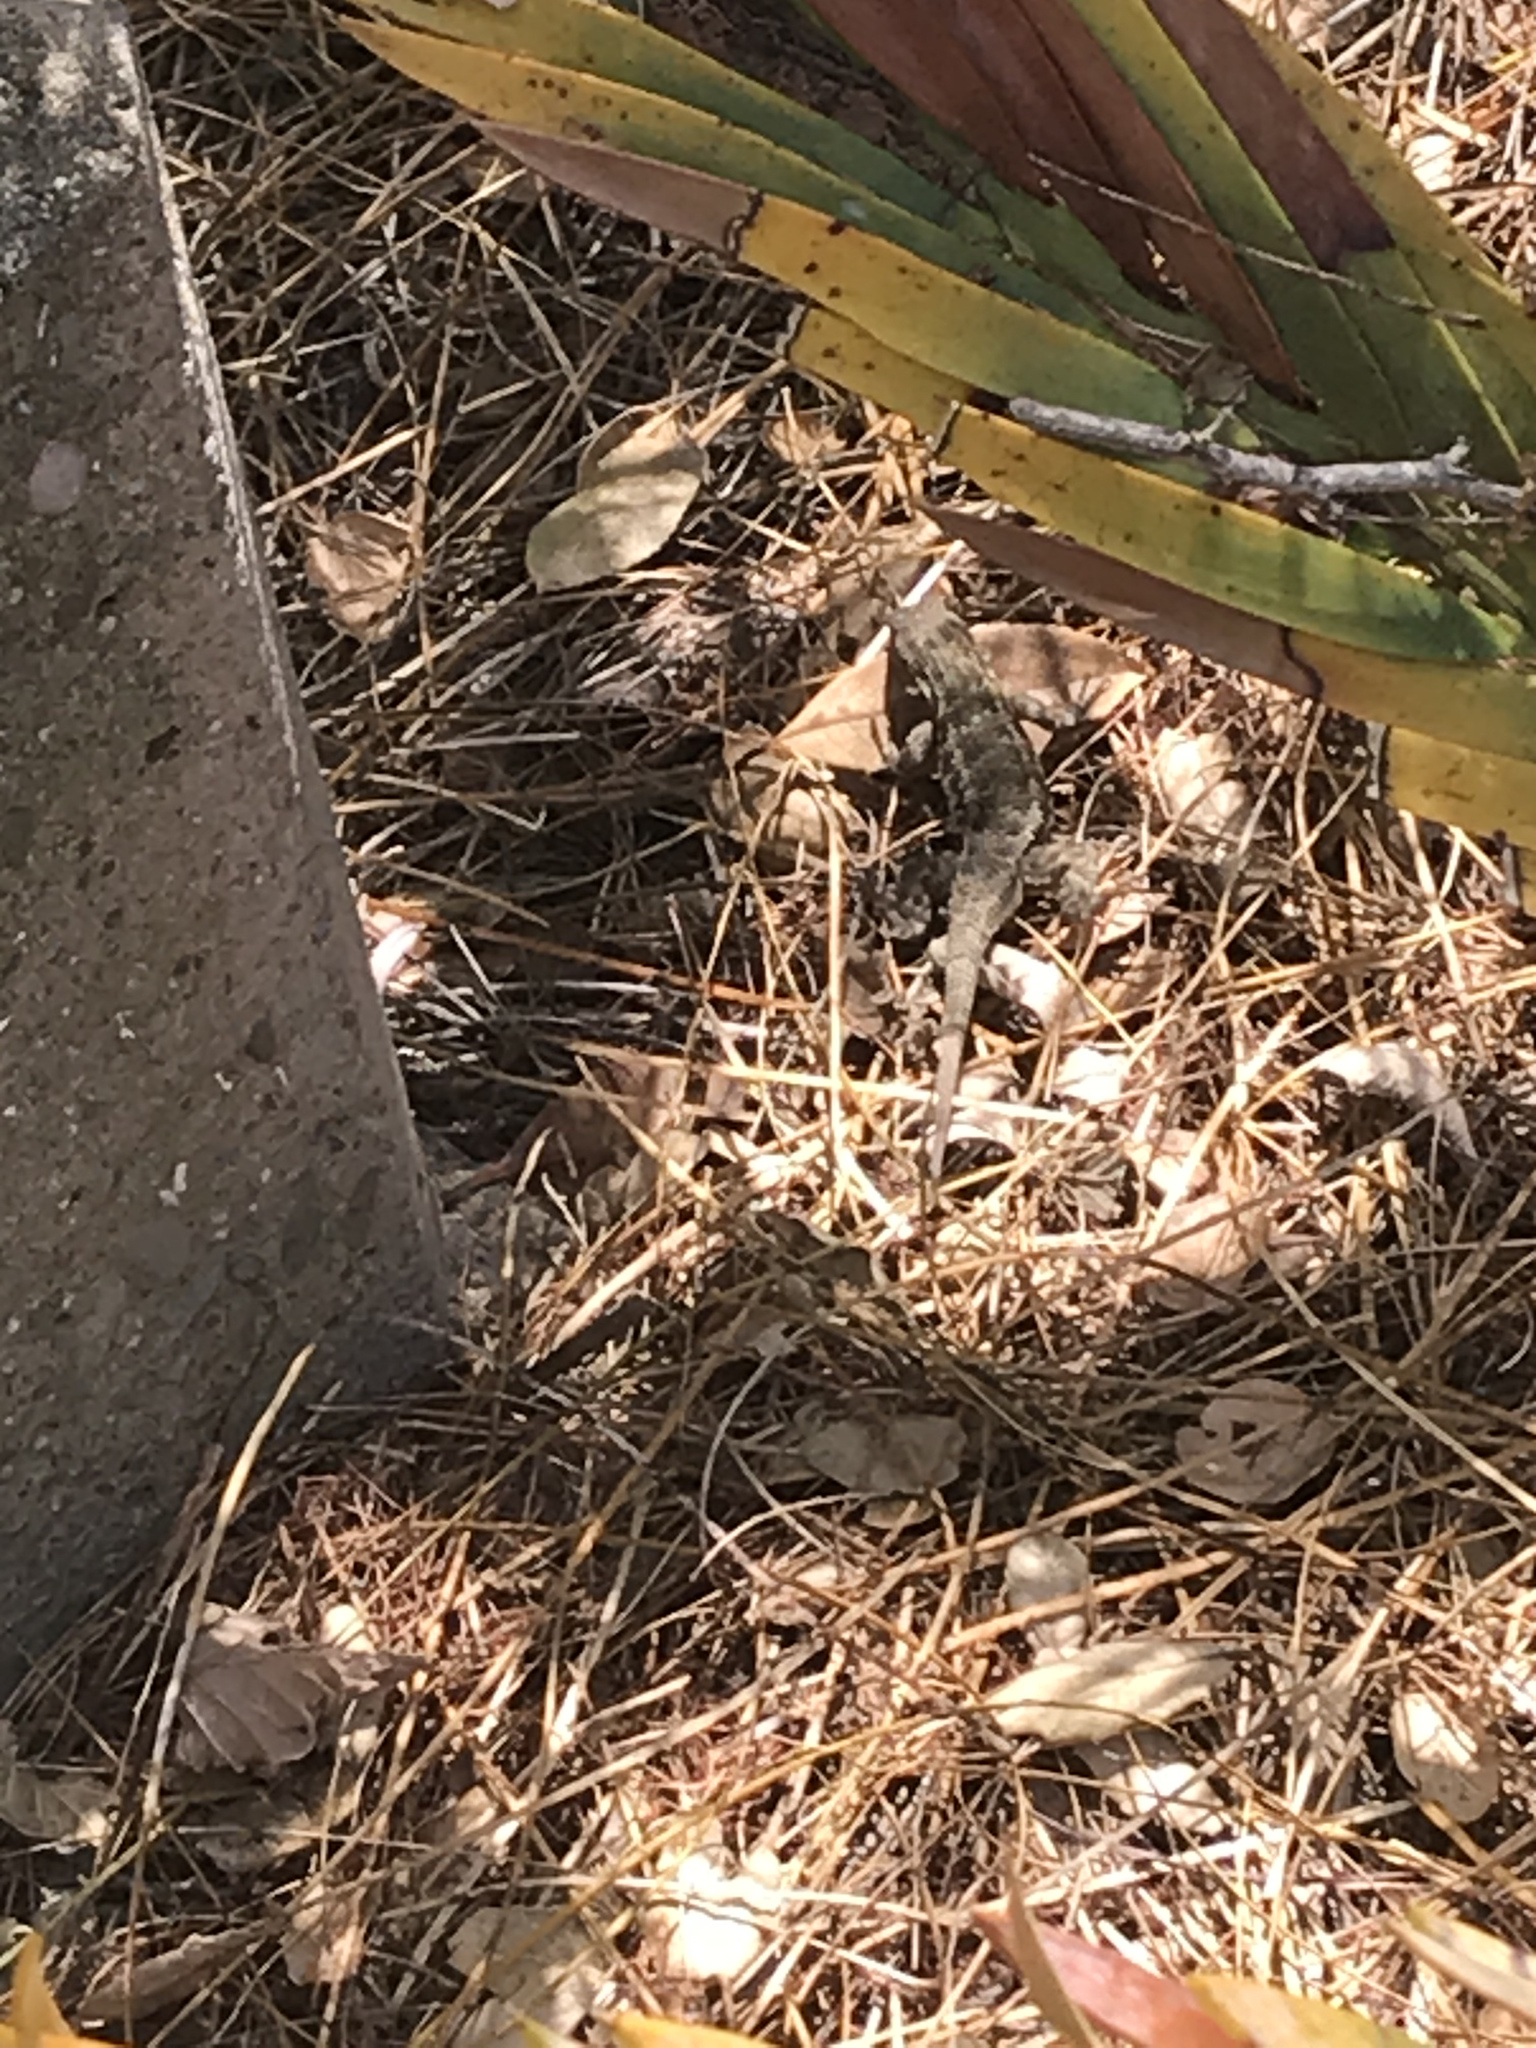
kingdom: Animalia
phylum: Chordata
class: Squamata
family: Phrynosomatidae
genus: Sceloporus
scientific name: Sceloporus occidentalis
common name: Western fence lizard
